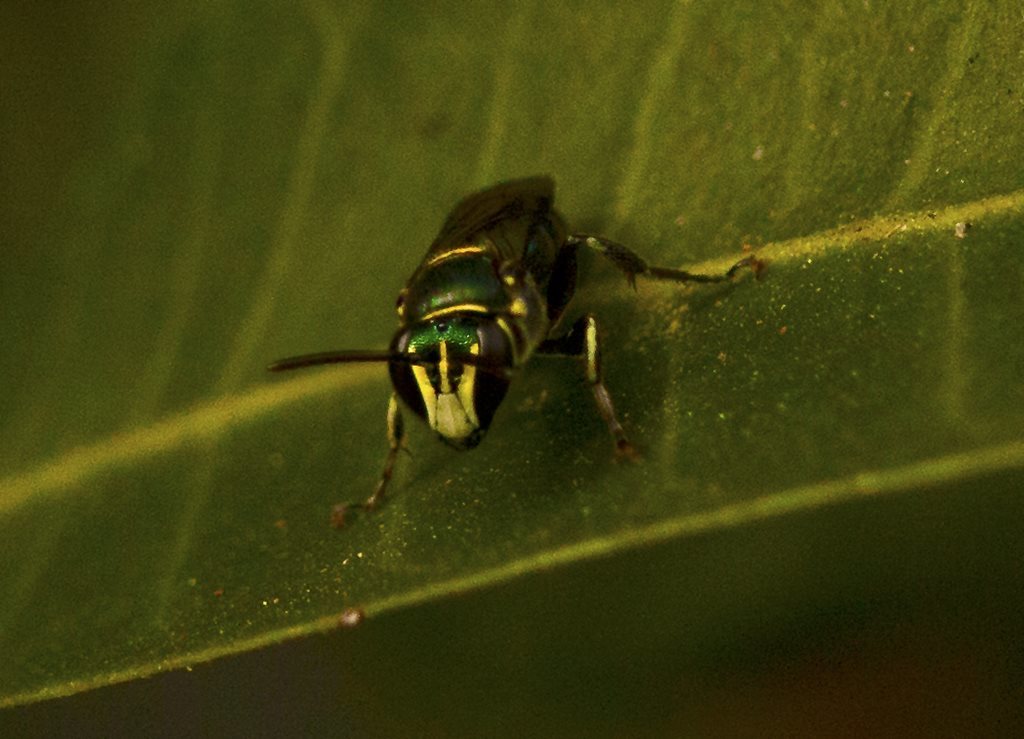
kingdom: Animalia
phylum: Arthropoda
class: Insecta
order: Hymenoptera
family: Colletidae
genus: Palaeorhiza
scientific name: Palaeorhiza parallela
